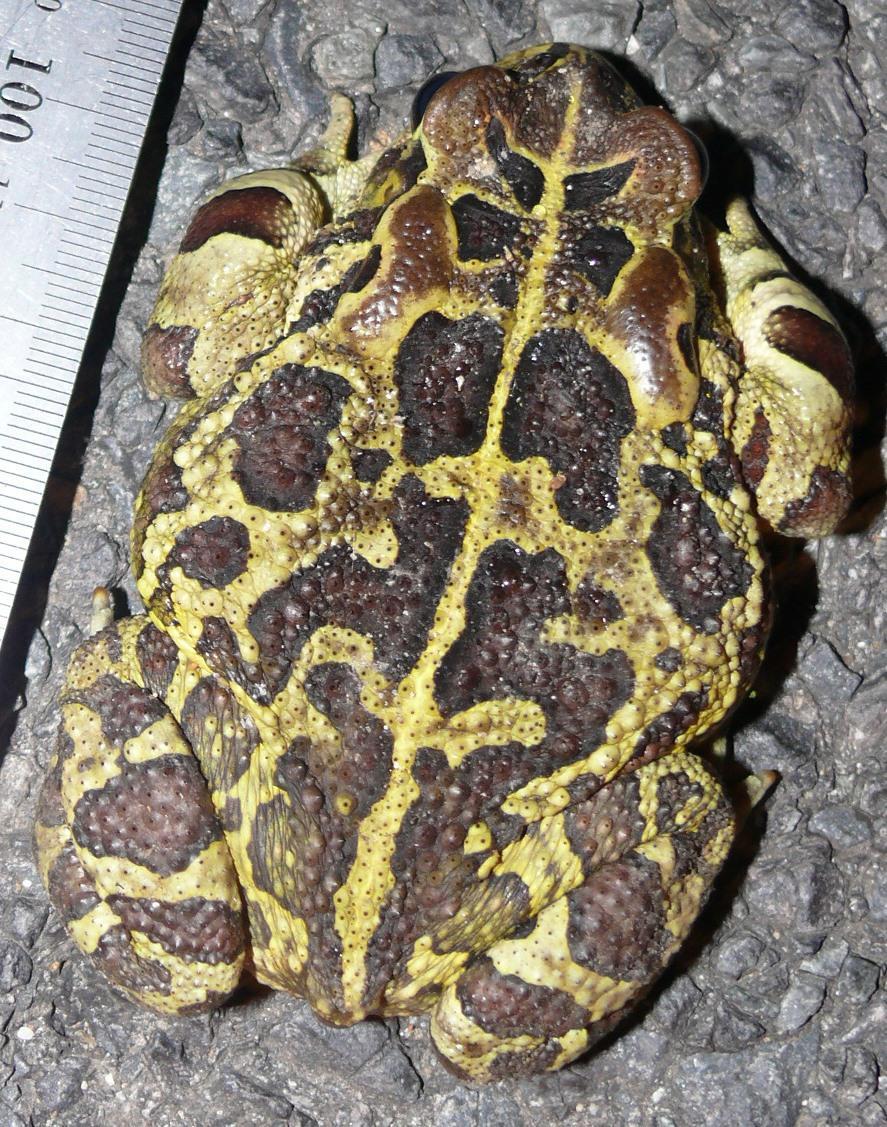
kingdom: Animalia
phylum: Chordata
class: Amphibia
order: Anura
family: Bufonidae
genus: Sclerophrys
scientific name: Sclerophrys pantherina
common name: Panther toad
